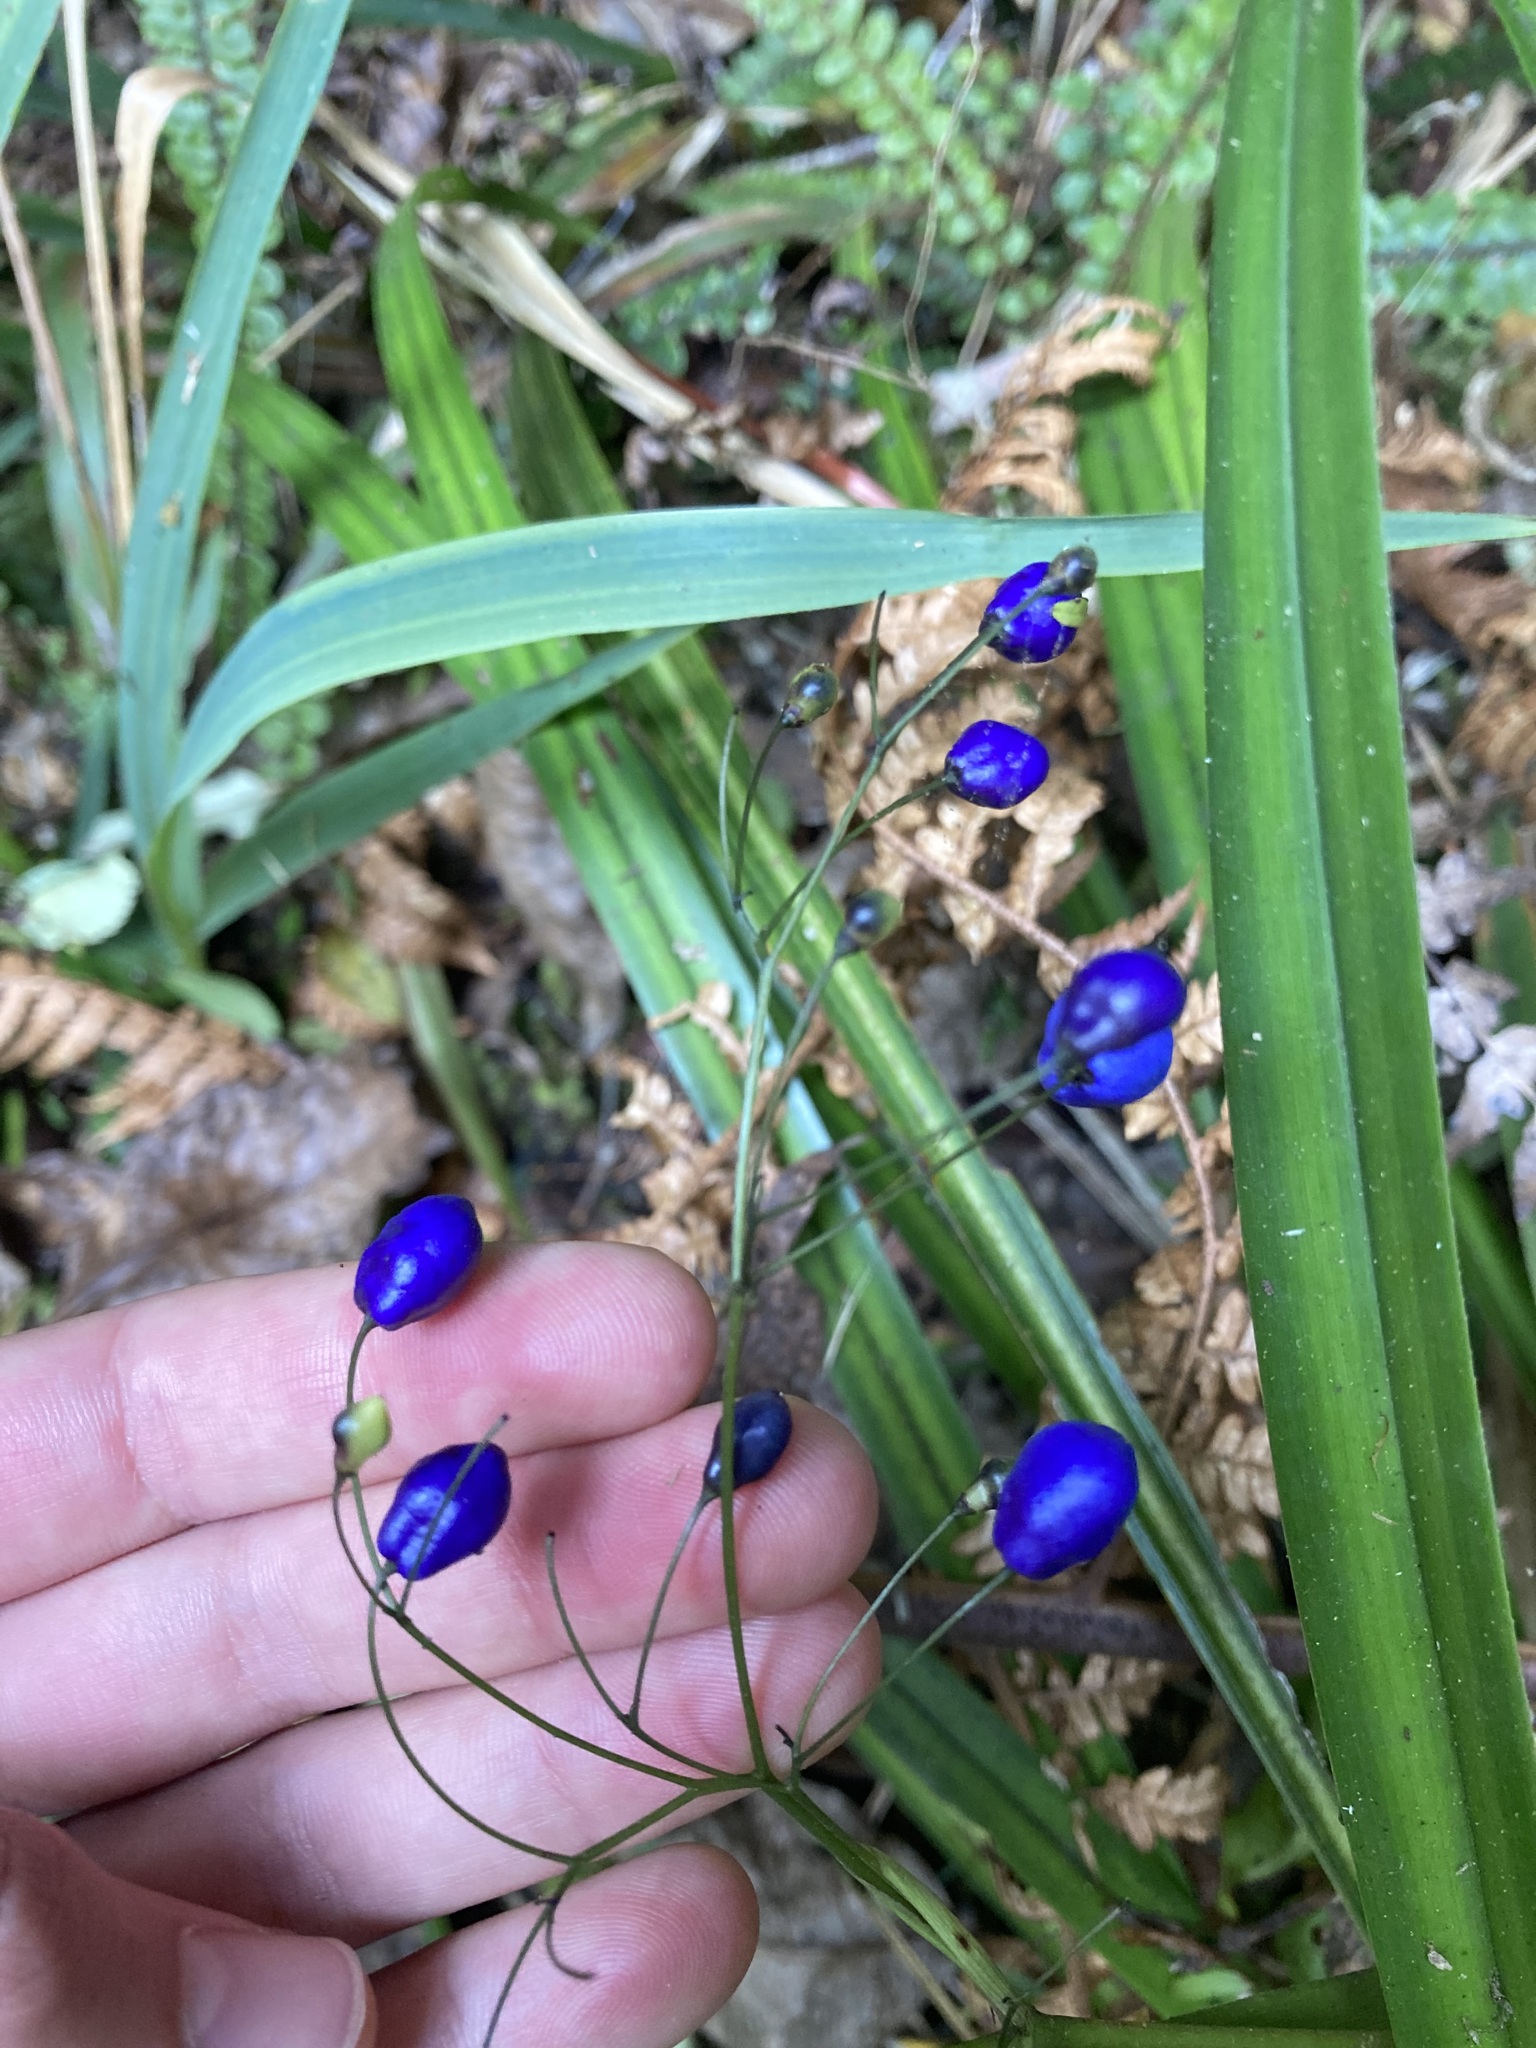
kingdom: Plantae
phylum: Tracheophyta
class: Liliopsida
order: Asparagales
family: Asphodelaceae
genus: Dianella
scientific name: Dianella nigra
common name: New zealand-blueberry
